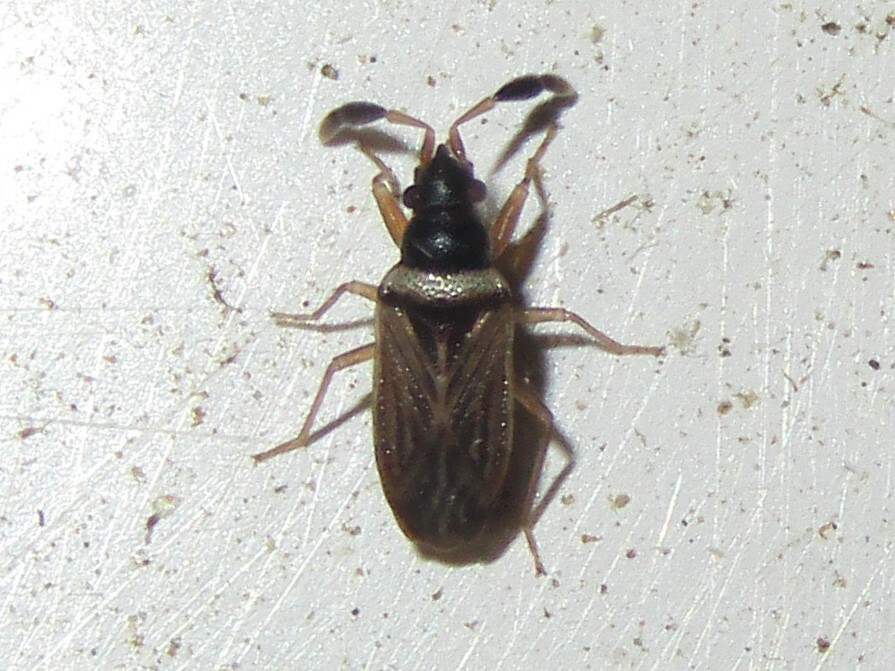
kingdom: Animalia
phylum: Arthropoda
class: Insecta
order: Hemiptera
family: Rhyparochromidae
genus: Ptochiomera
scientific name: Ptochiomera nodosa
